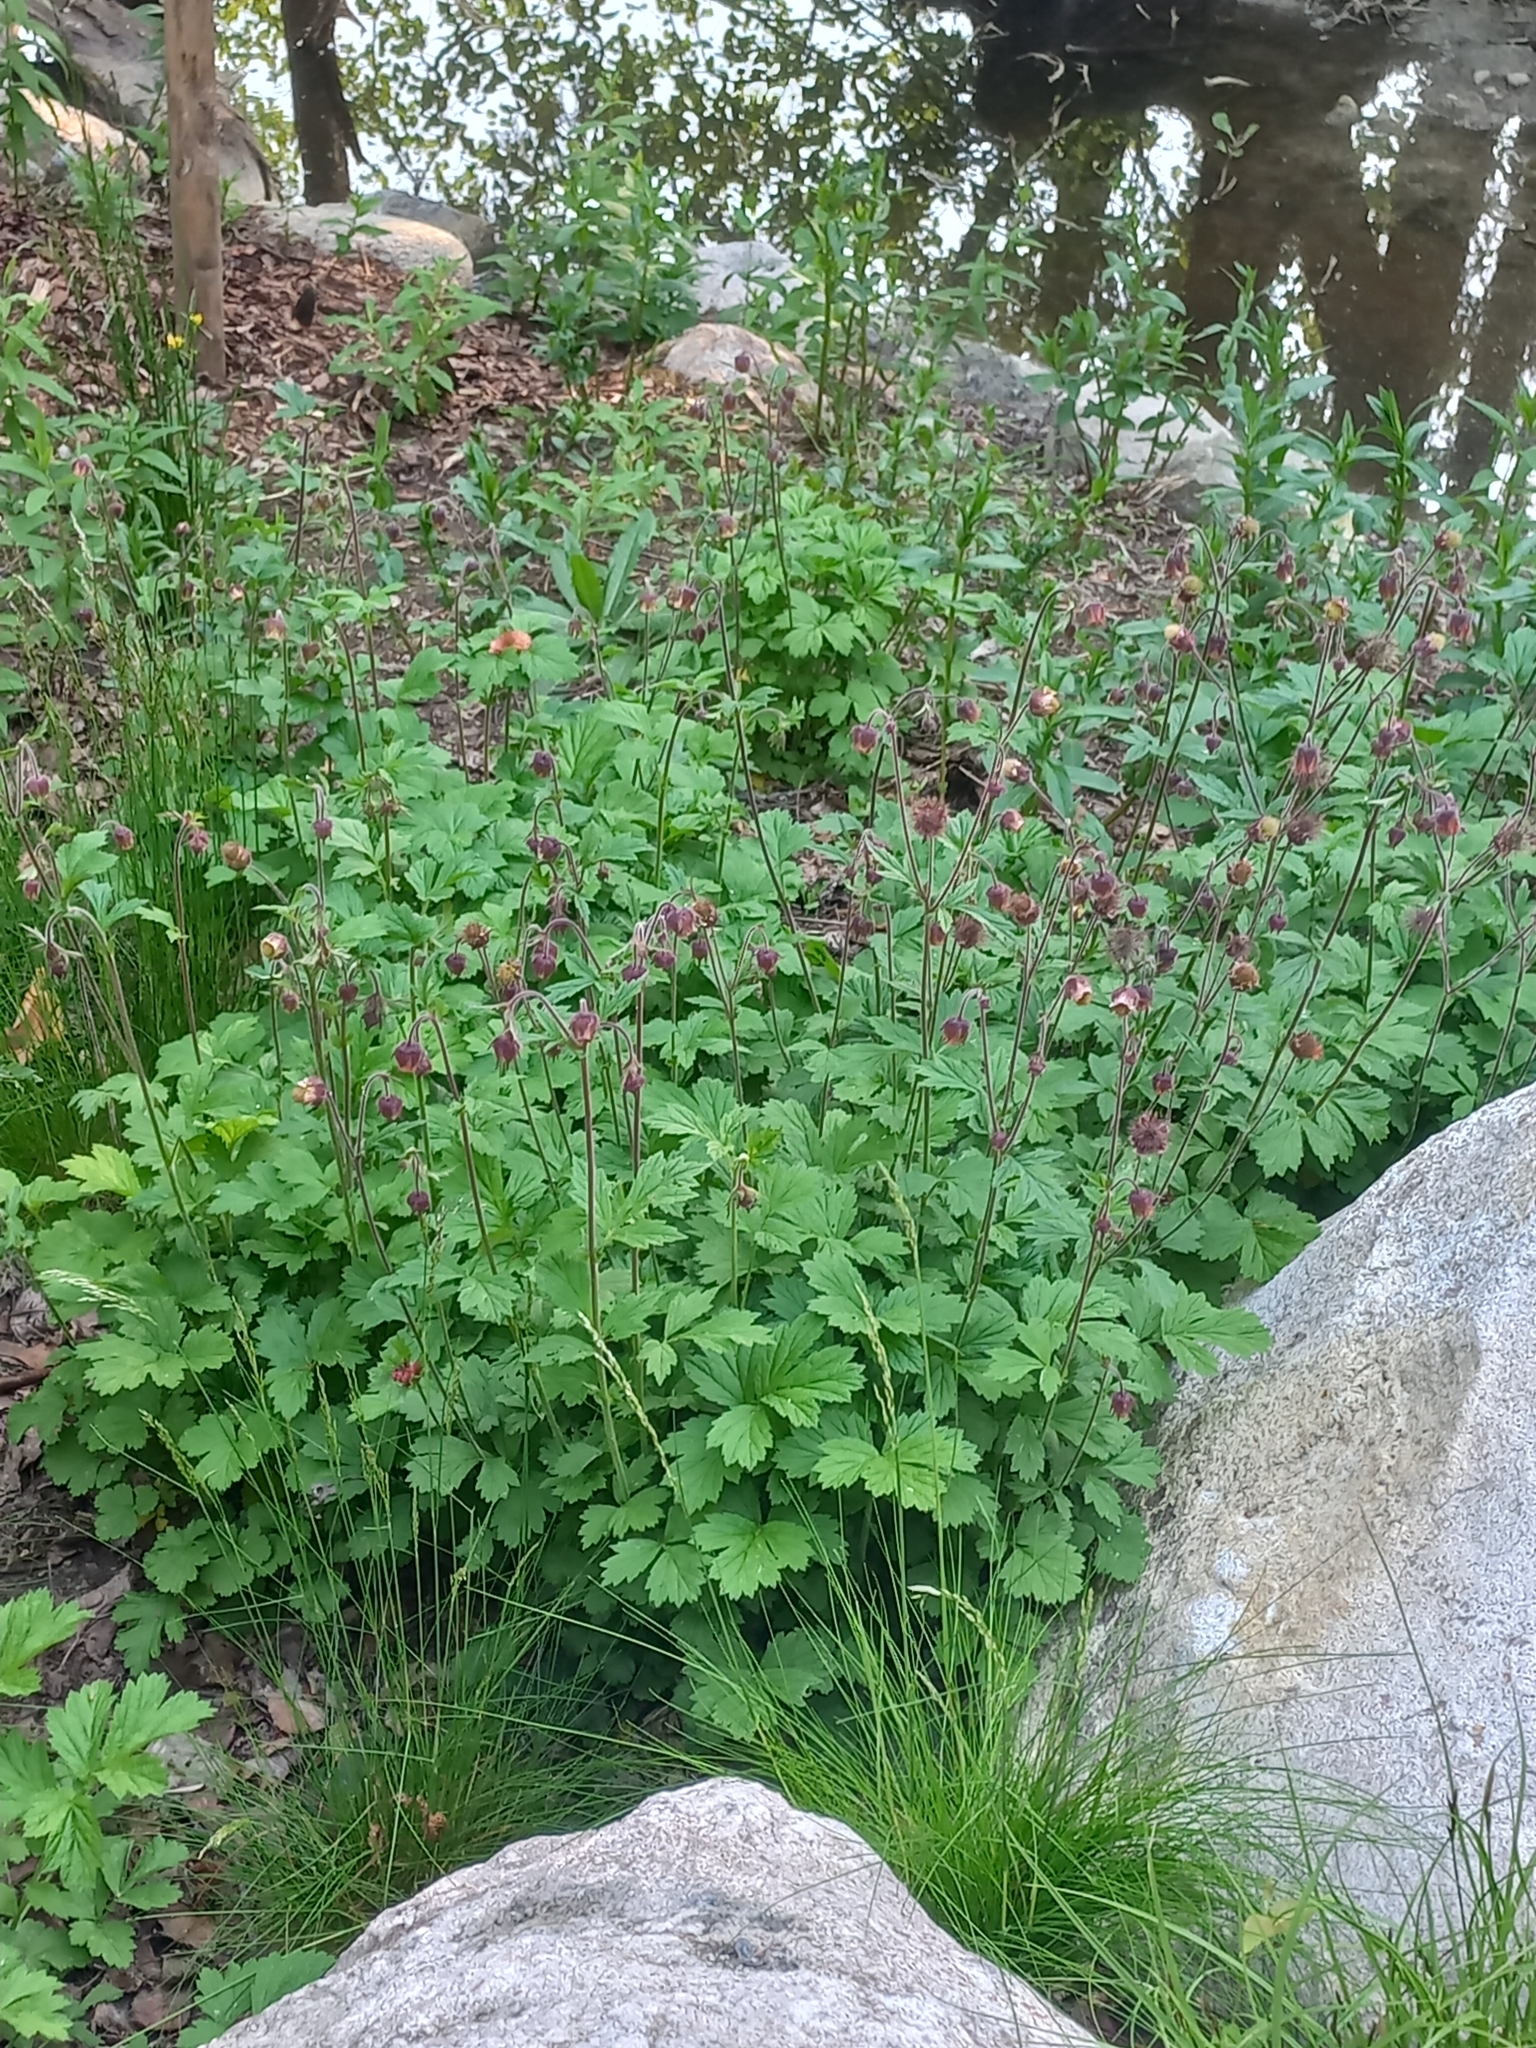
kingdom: Plantae
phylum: Tracheophyta
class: Magnoliopsida
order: Rosales
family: Rosaceae
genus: Geum
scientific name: Geum rivale
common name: Water avens
